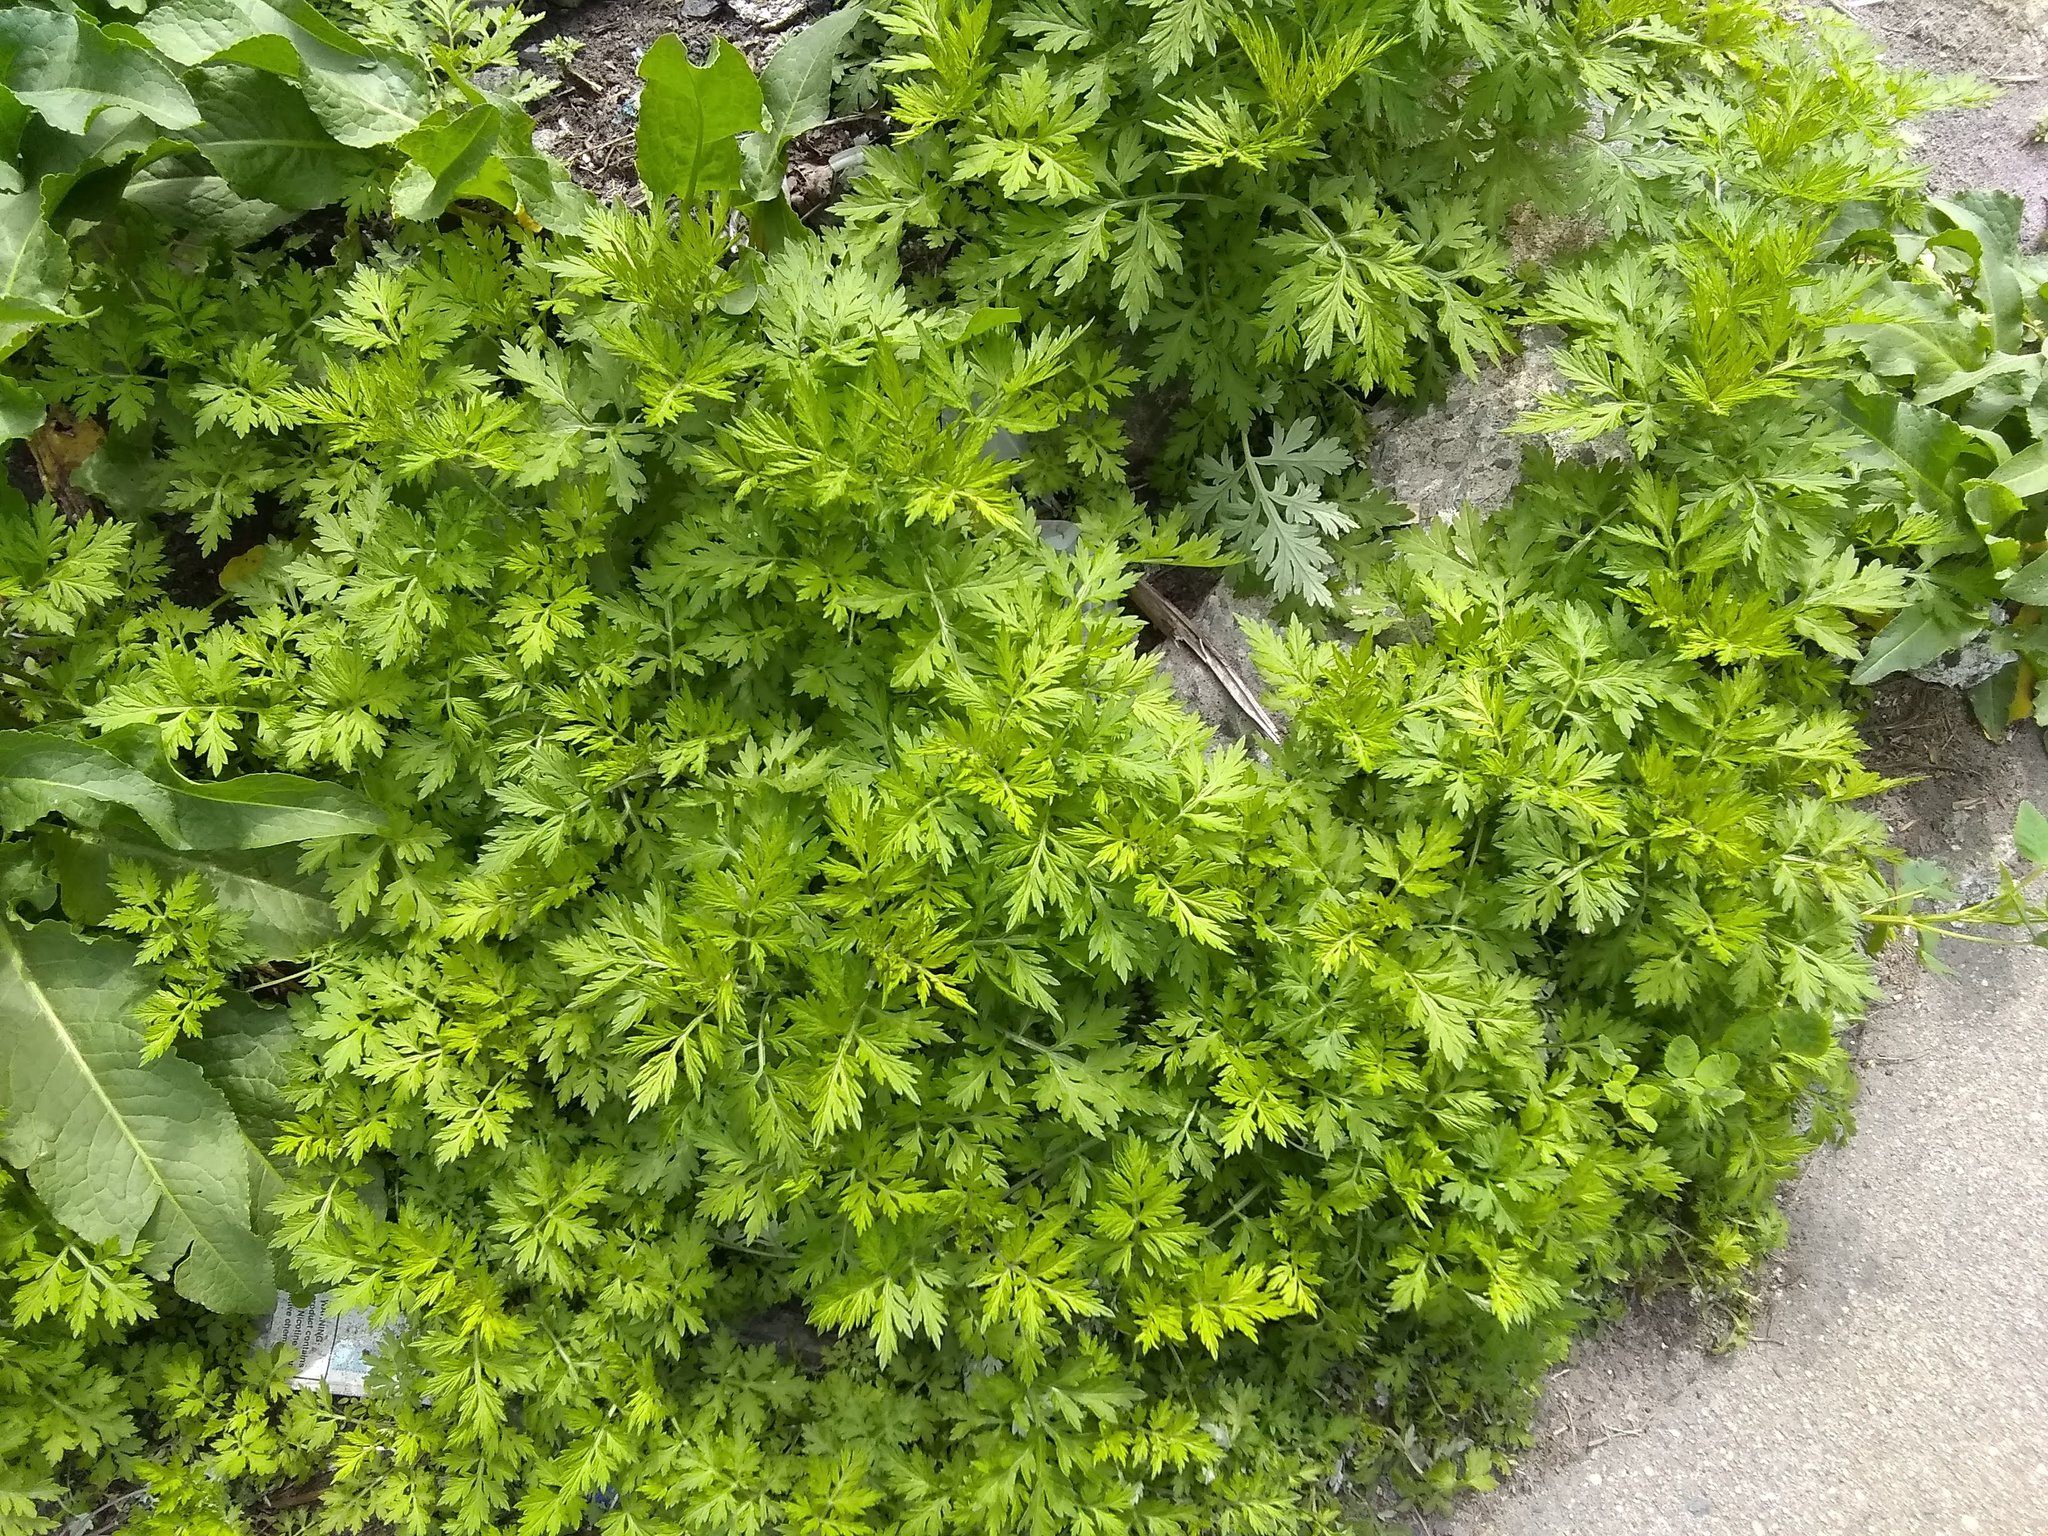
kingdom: Plantae
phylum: Tracheophyta
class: Magnoliopsida
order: Asterales
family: Asteraceae
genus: Artemisia
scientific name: Artemisia vulgaris
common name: Mugwort
